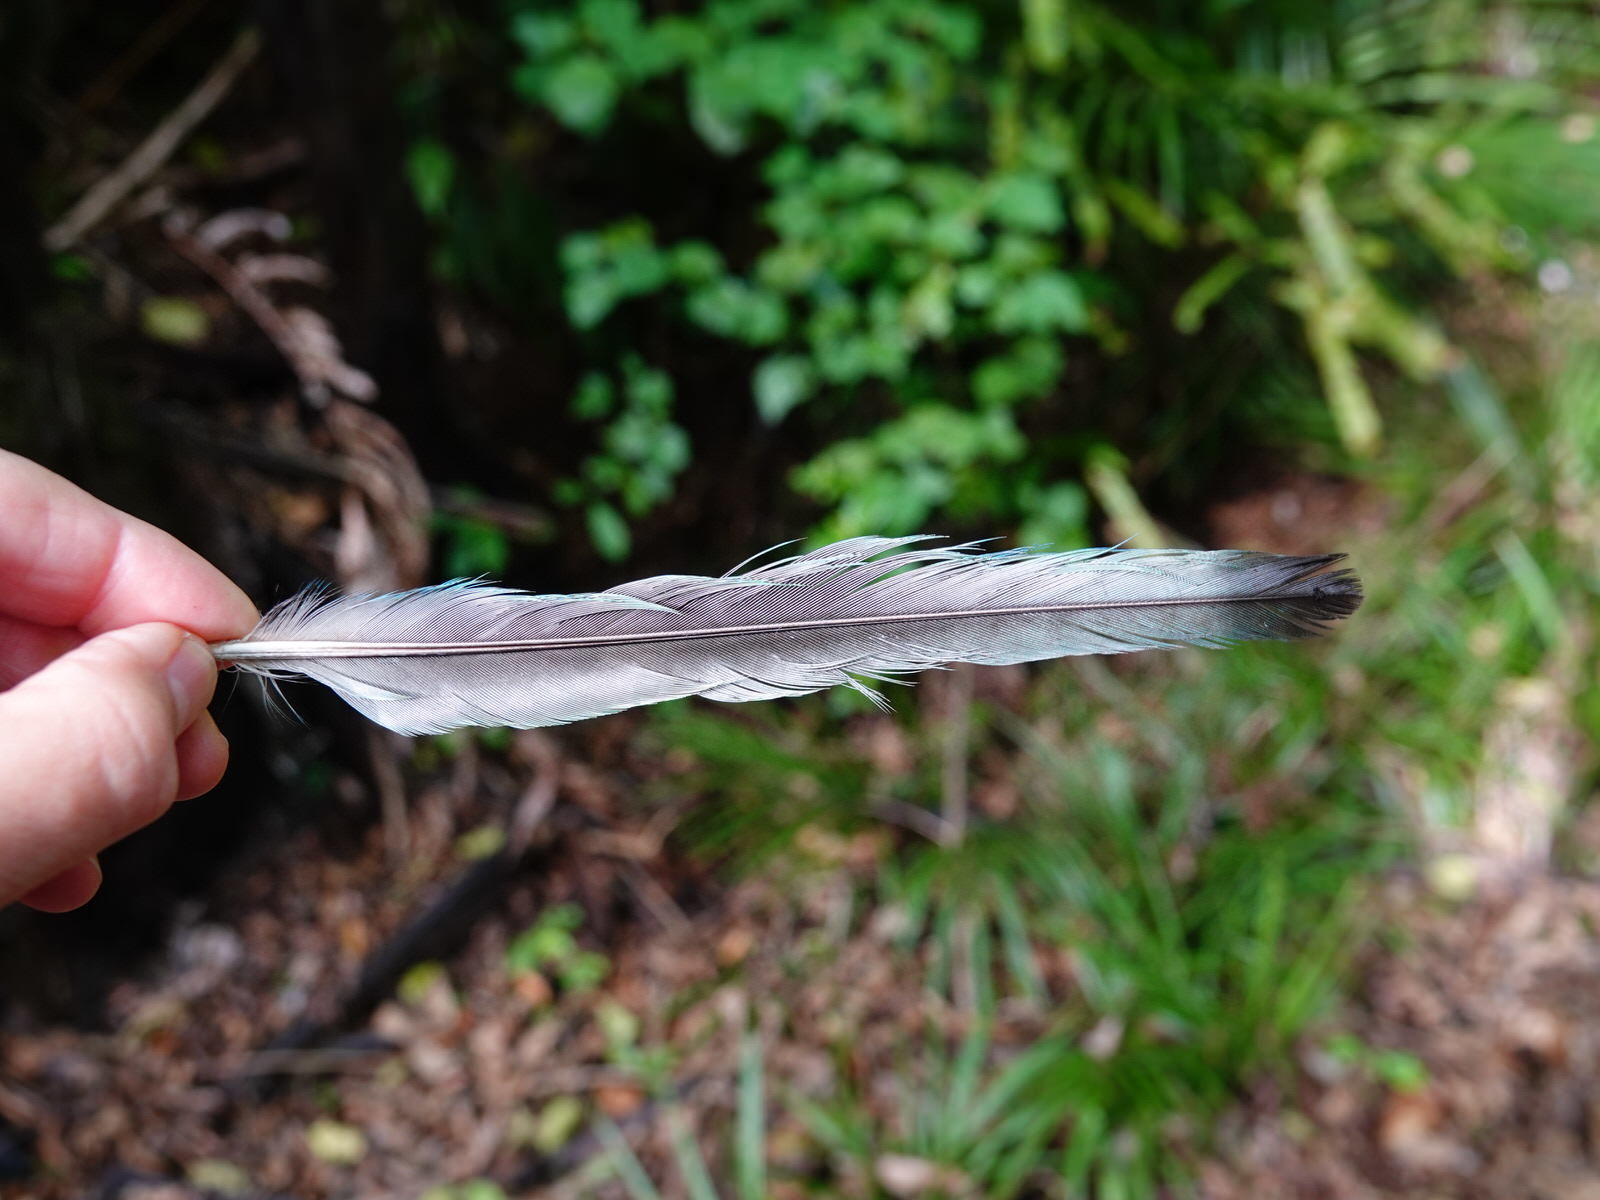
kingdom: Animalia
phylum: Chordata
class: Aves
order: Psittaciformes
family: Psittacidae
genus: Platycercus
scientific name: Platycercus eximius
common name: Eastern rosella
